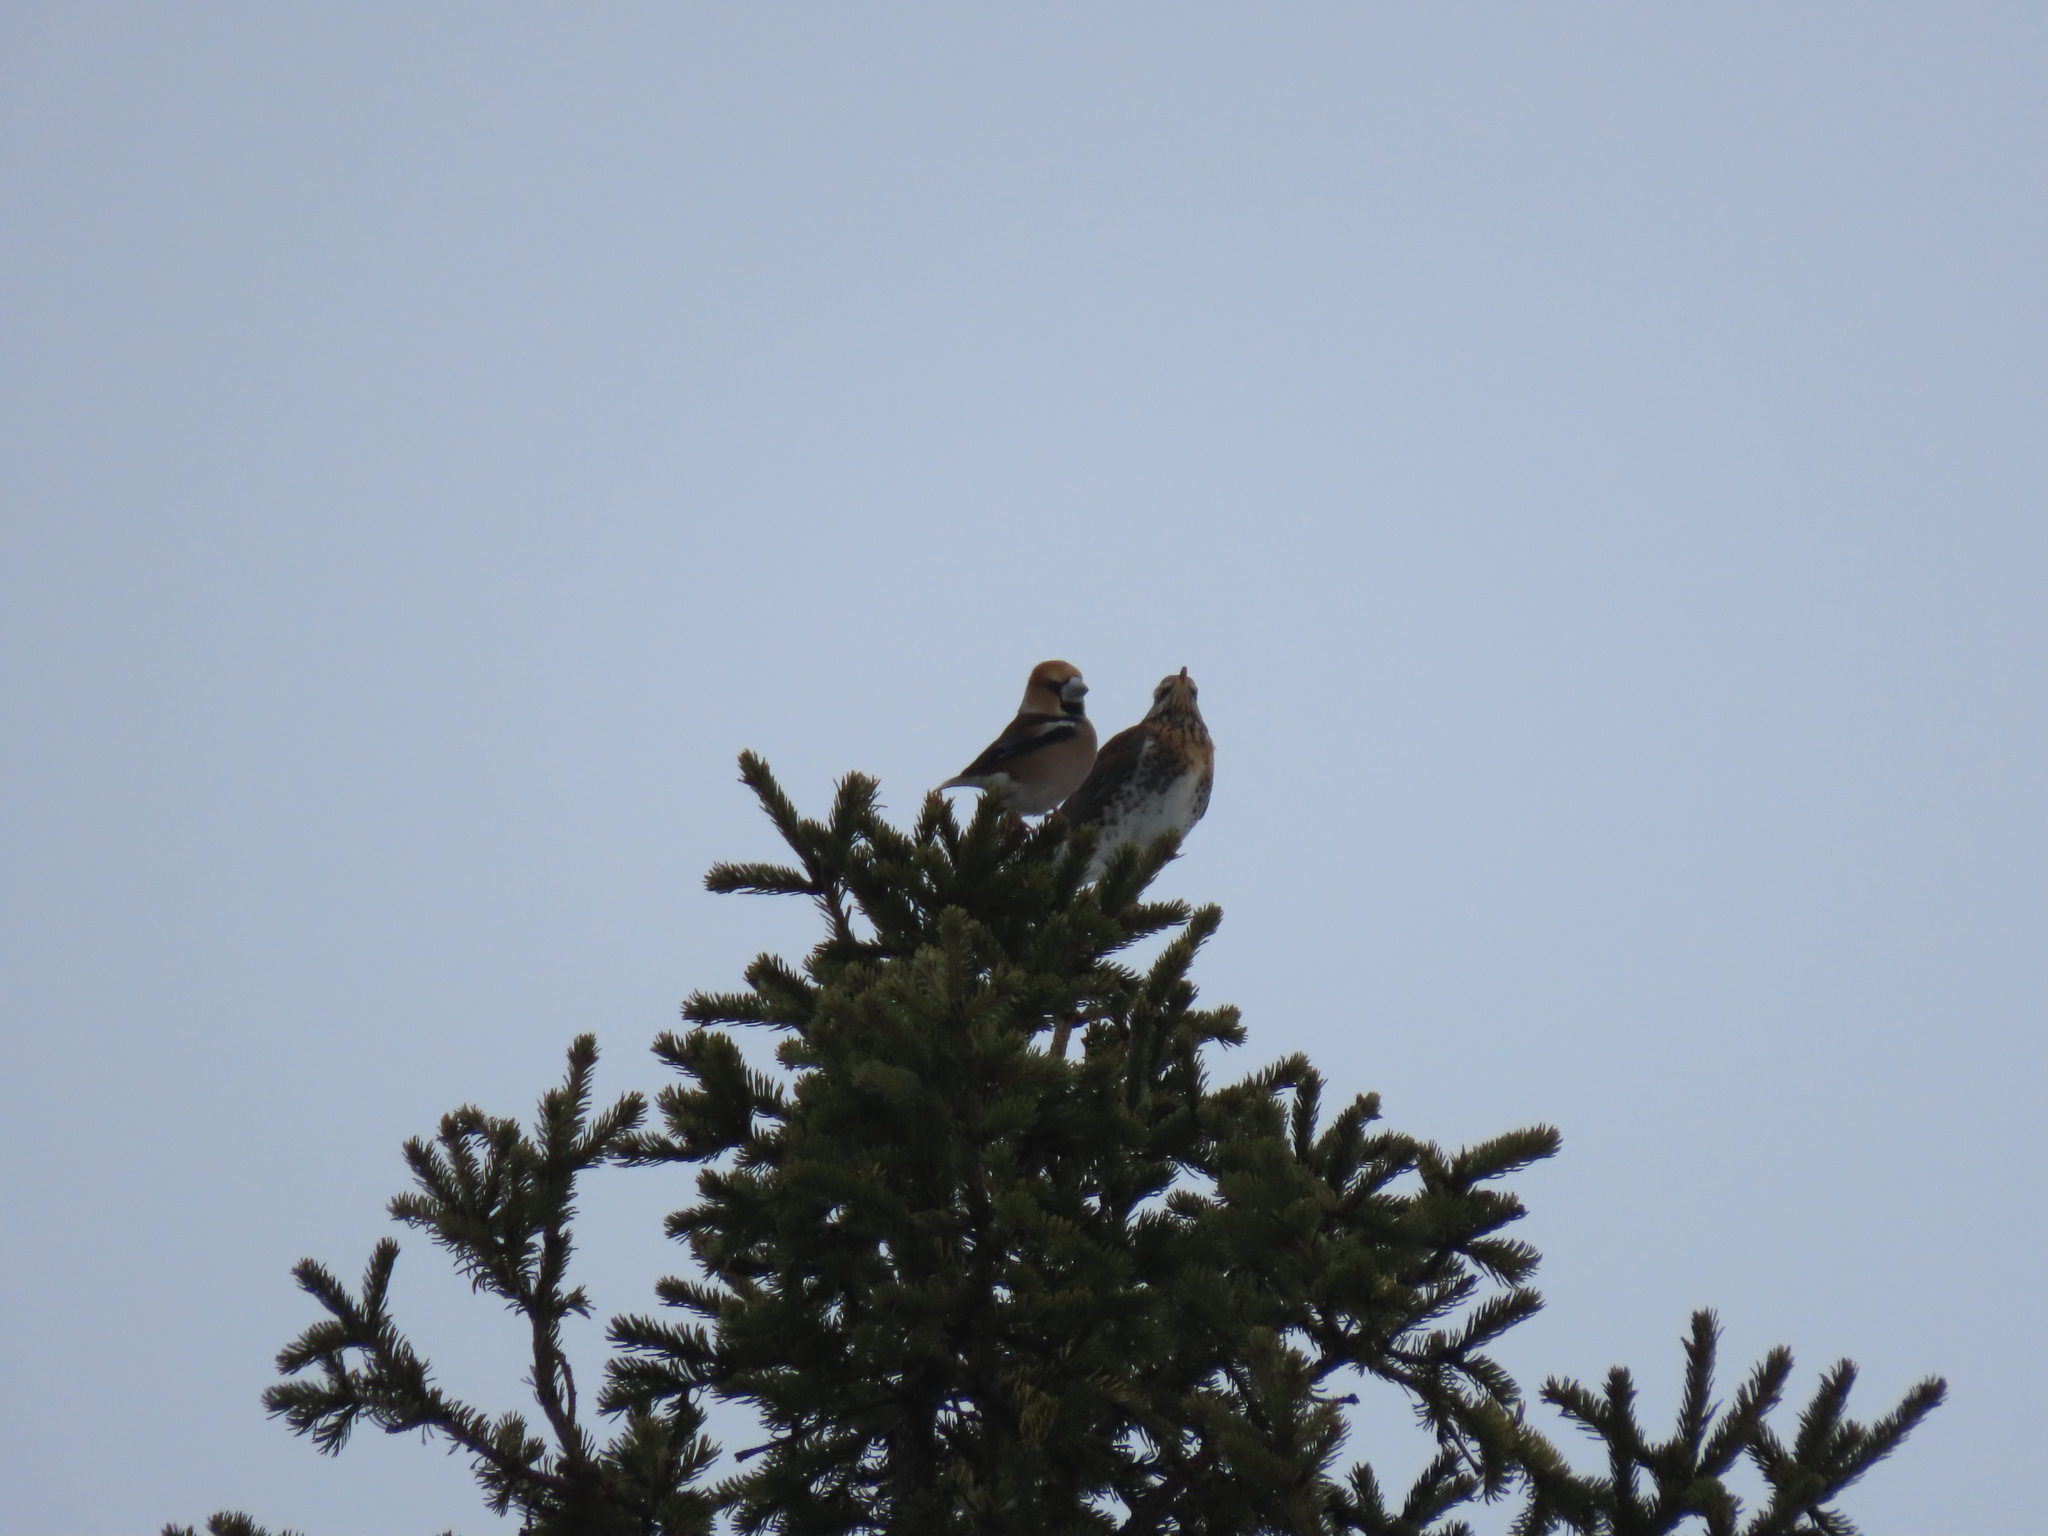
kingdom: Animalia
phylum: Chordata
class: Aves
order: Passeriformes
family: Fringillidae
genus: Coccothraustes
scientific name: Coccothraustes coccothraustes
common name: Hawfinch
